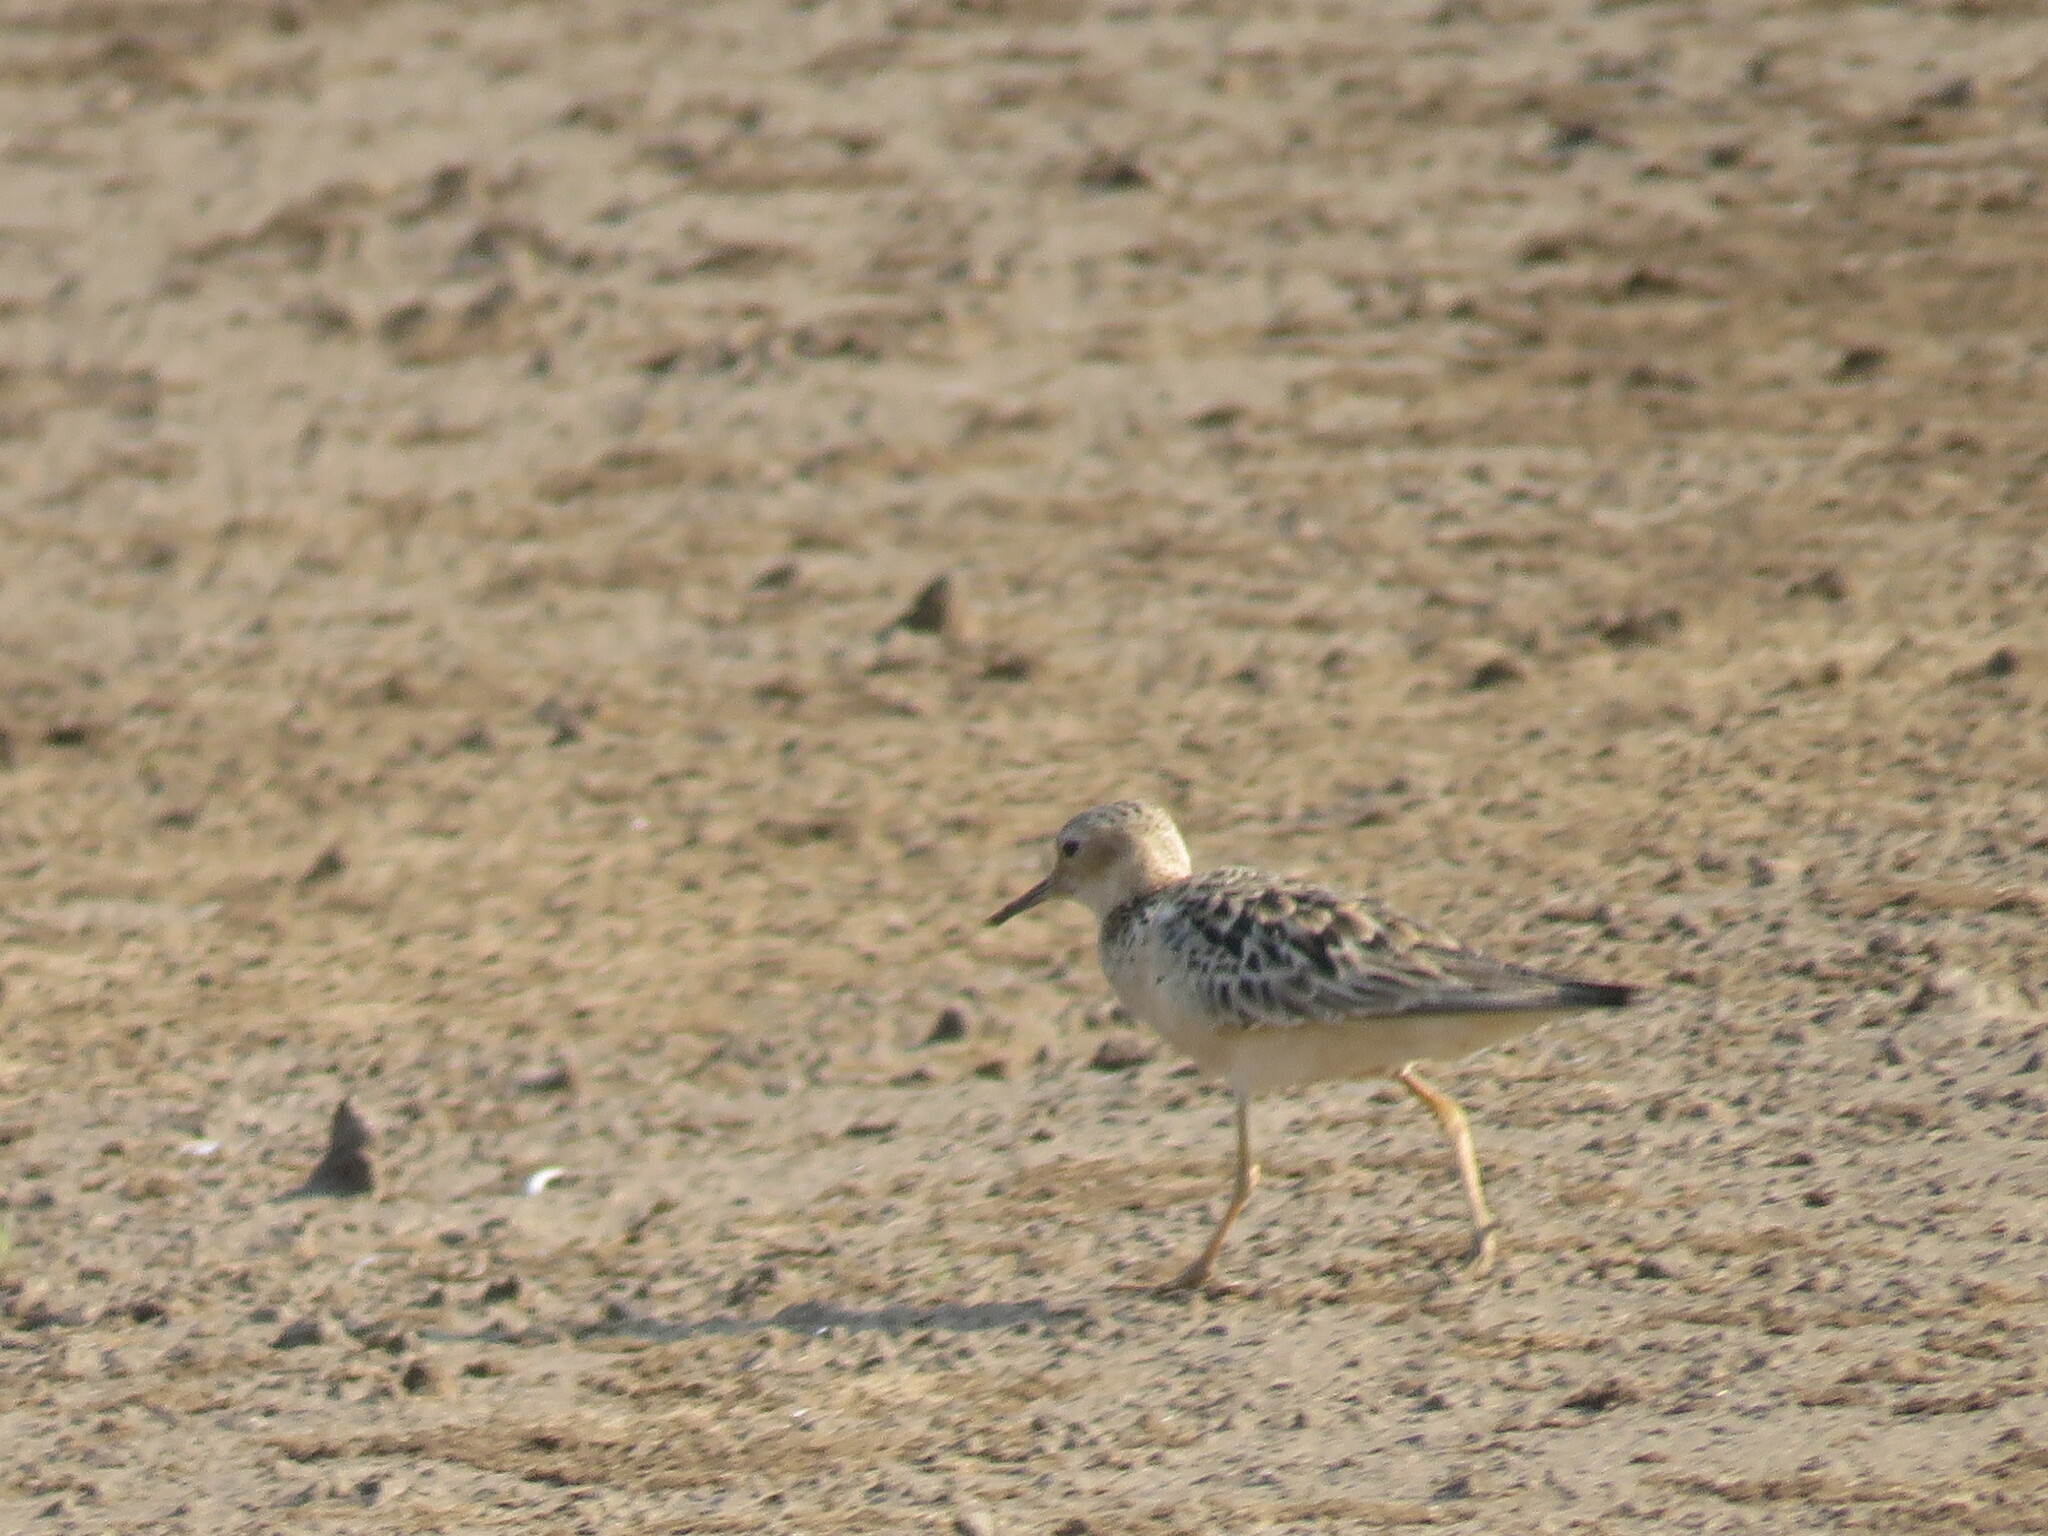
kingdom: Animalia
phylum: Chordata
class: Aves
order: Charadriiformes
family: Scolopacidae
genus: Calidris
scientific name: Calidris subruficollis
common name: Buff-breasted sandpiper
